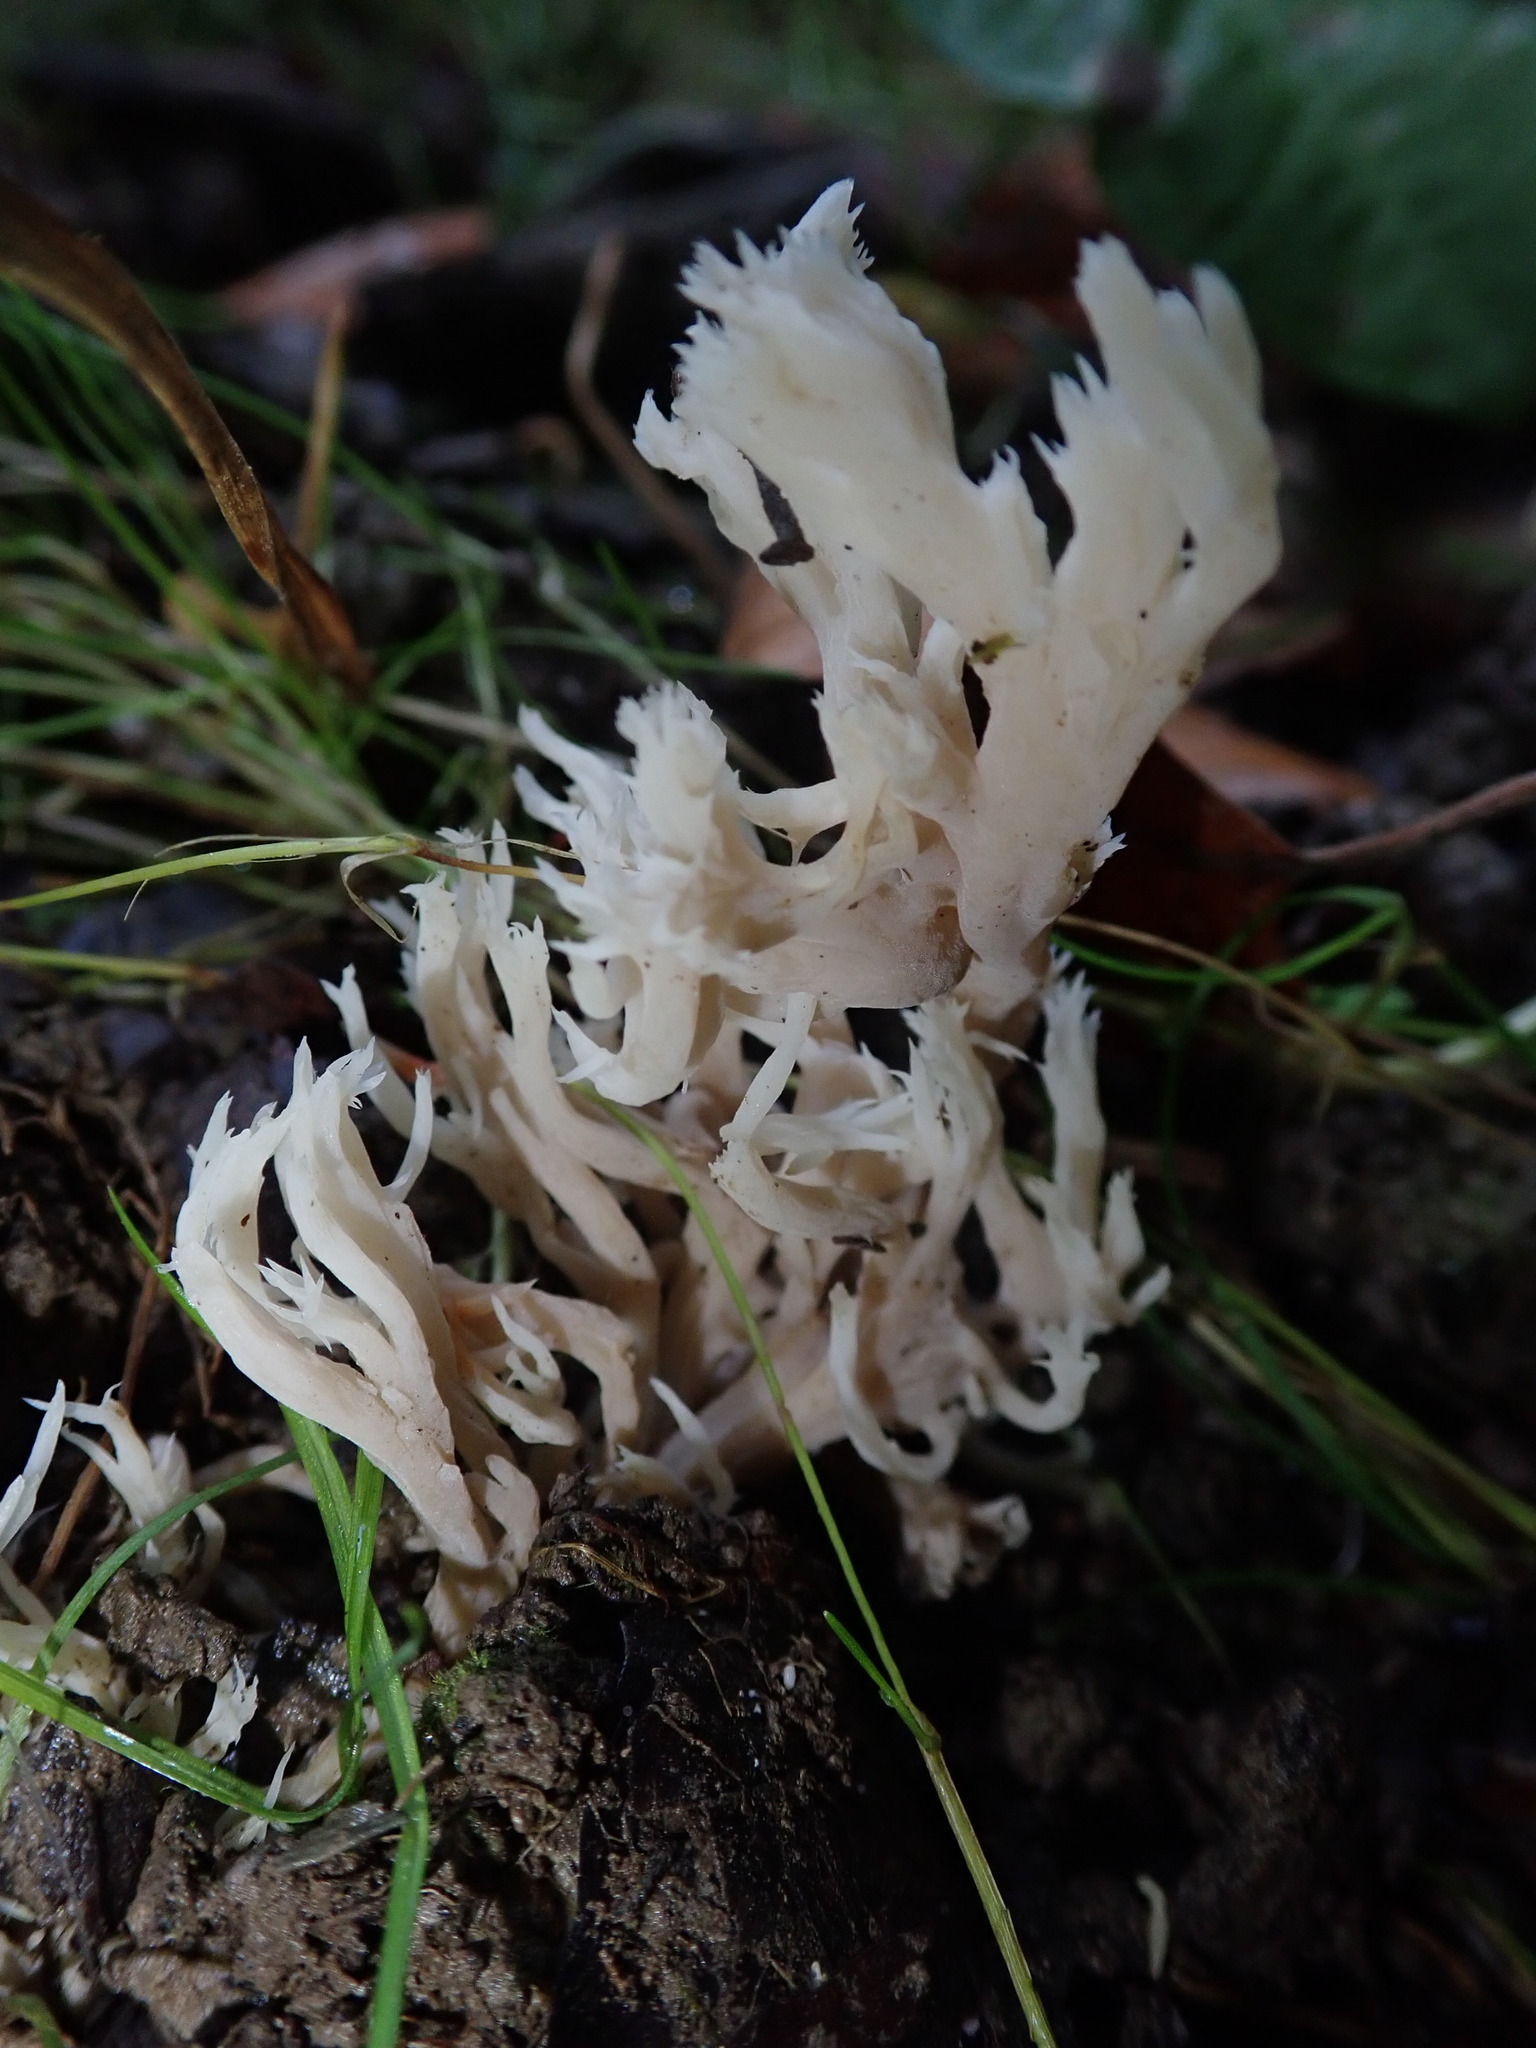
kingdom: Fungi
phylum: Basidiomycota
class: Agaricomycetes
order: Cantharellales
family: Hydnaceae
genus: Clavulina
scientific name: Clavulina coralloides
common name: Crested coral
